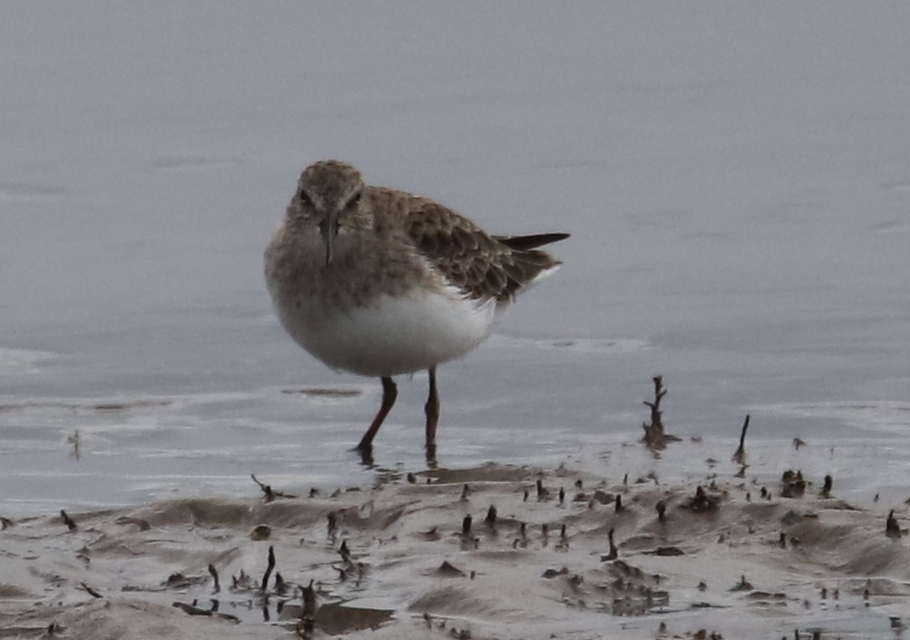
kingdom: Animalia
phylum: Chordata
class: Aves
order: Charadriiformes
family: Scolopacidae
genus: Calidris
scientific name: Calidris minutilla
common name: Least sandpiper
